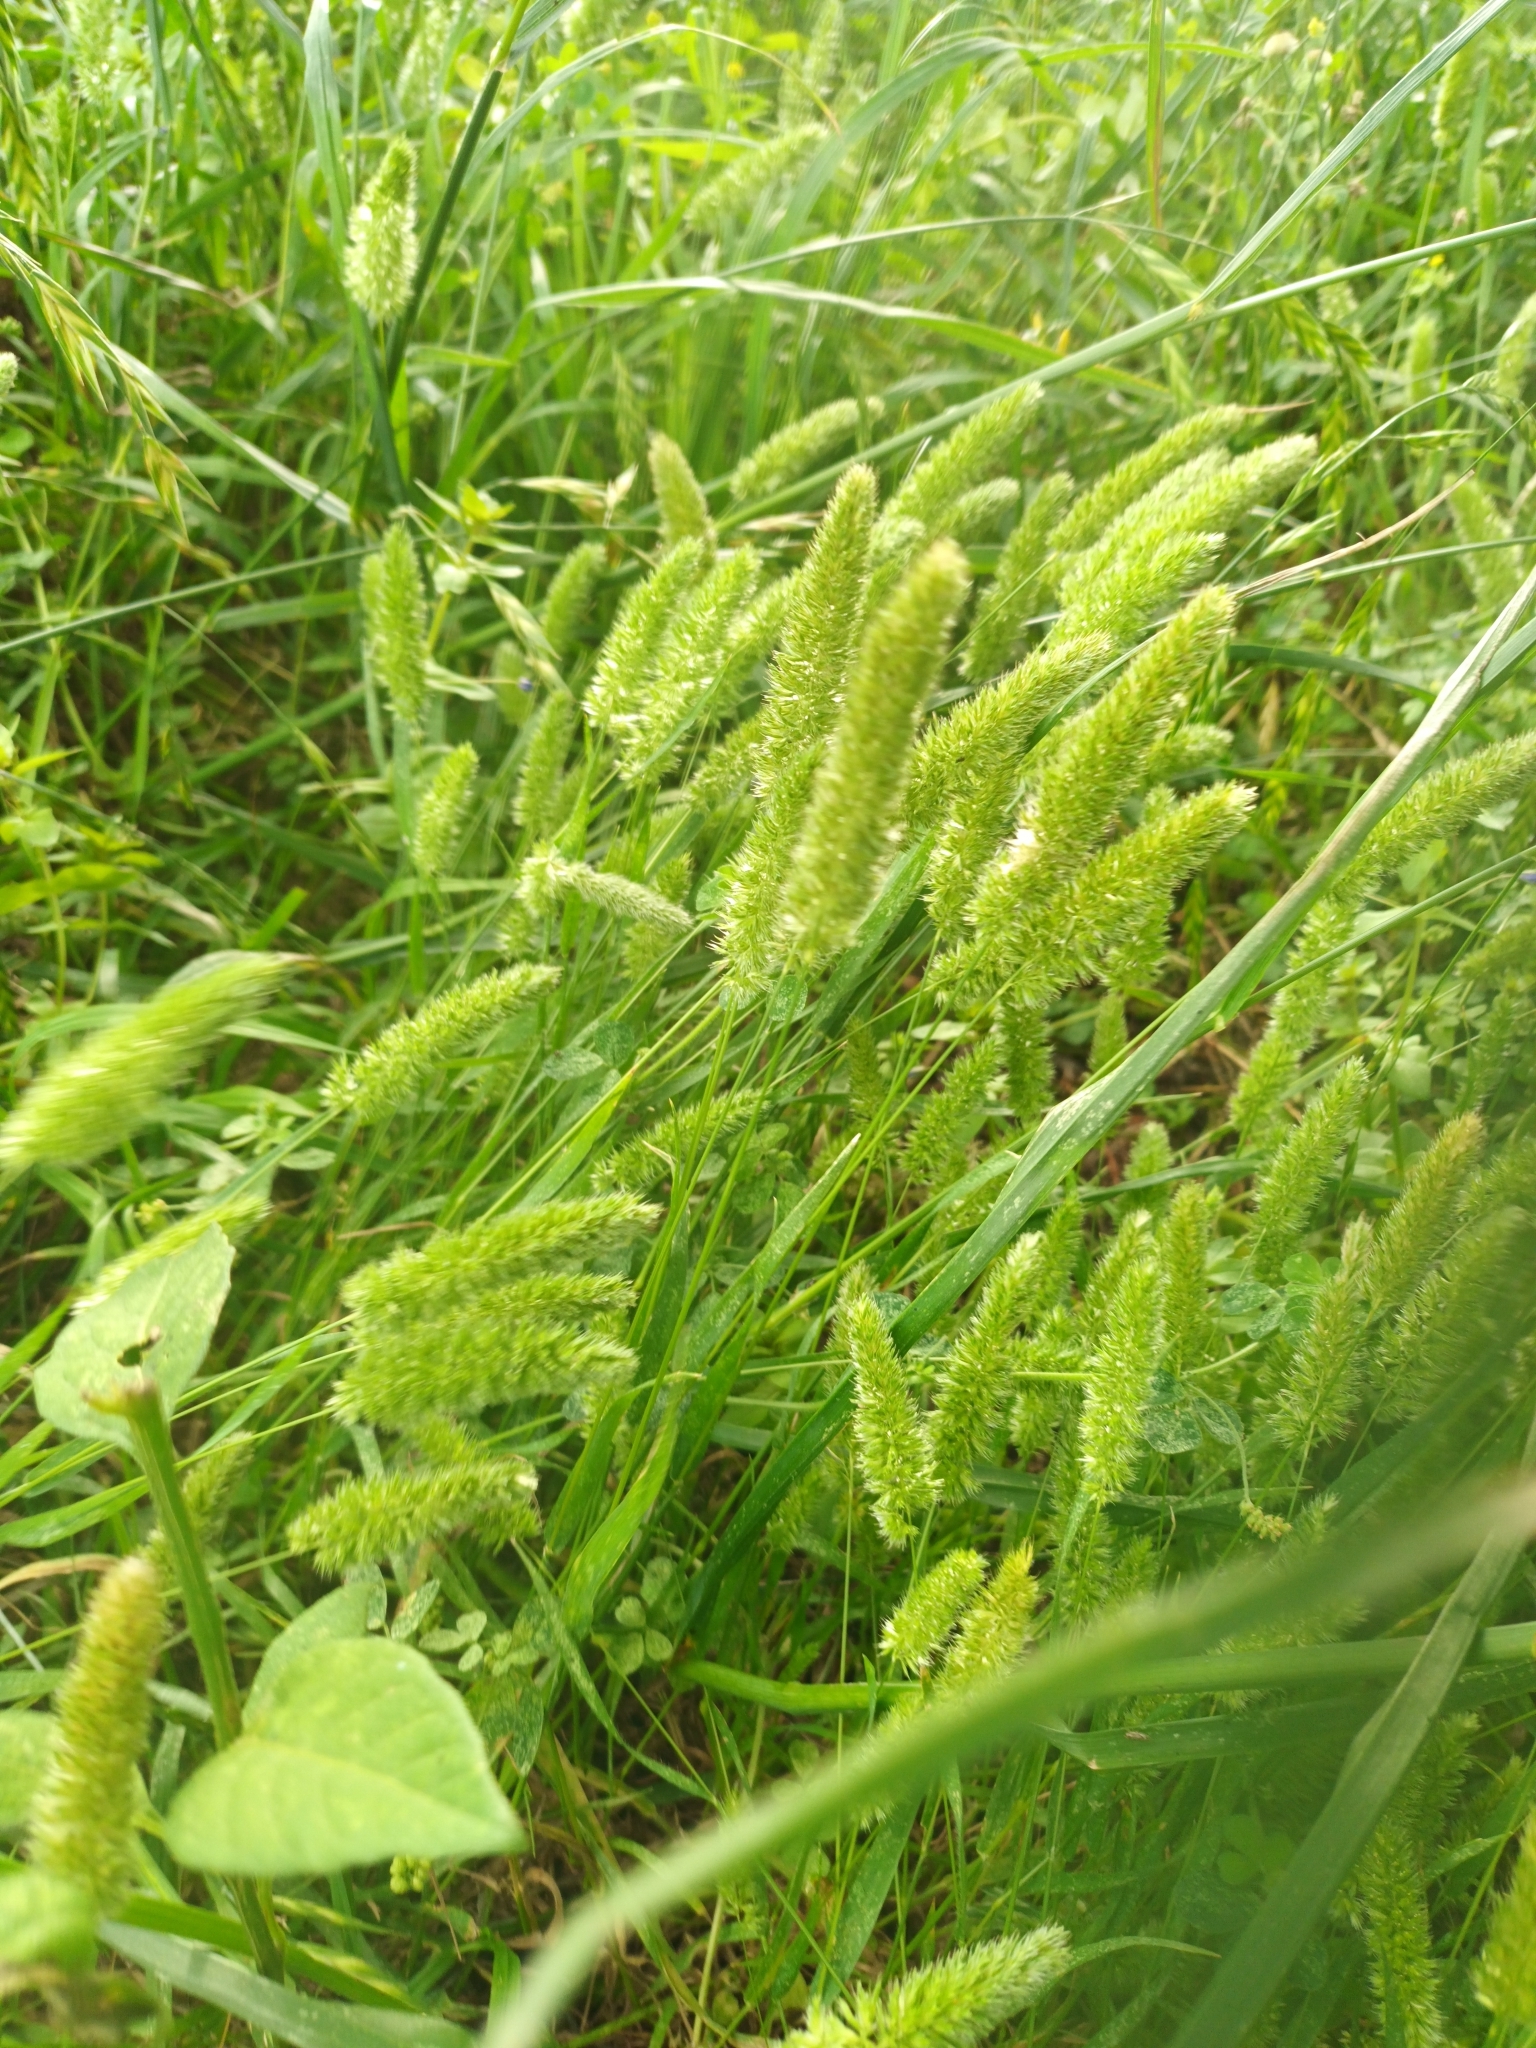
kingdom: Plantae
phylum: Tracheophyta
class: Liliopsida
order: Poales
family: Poaceae
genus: Rostraria
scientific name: Rostraria cristata
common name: Mediterranean hair-grass
